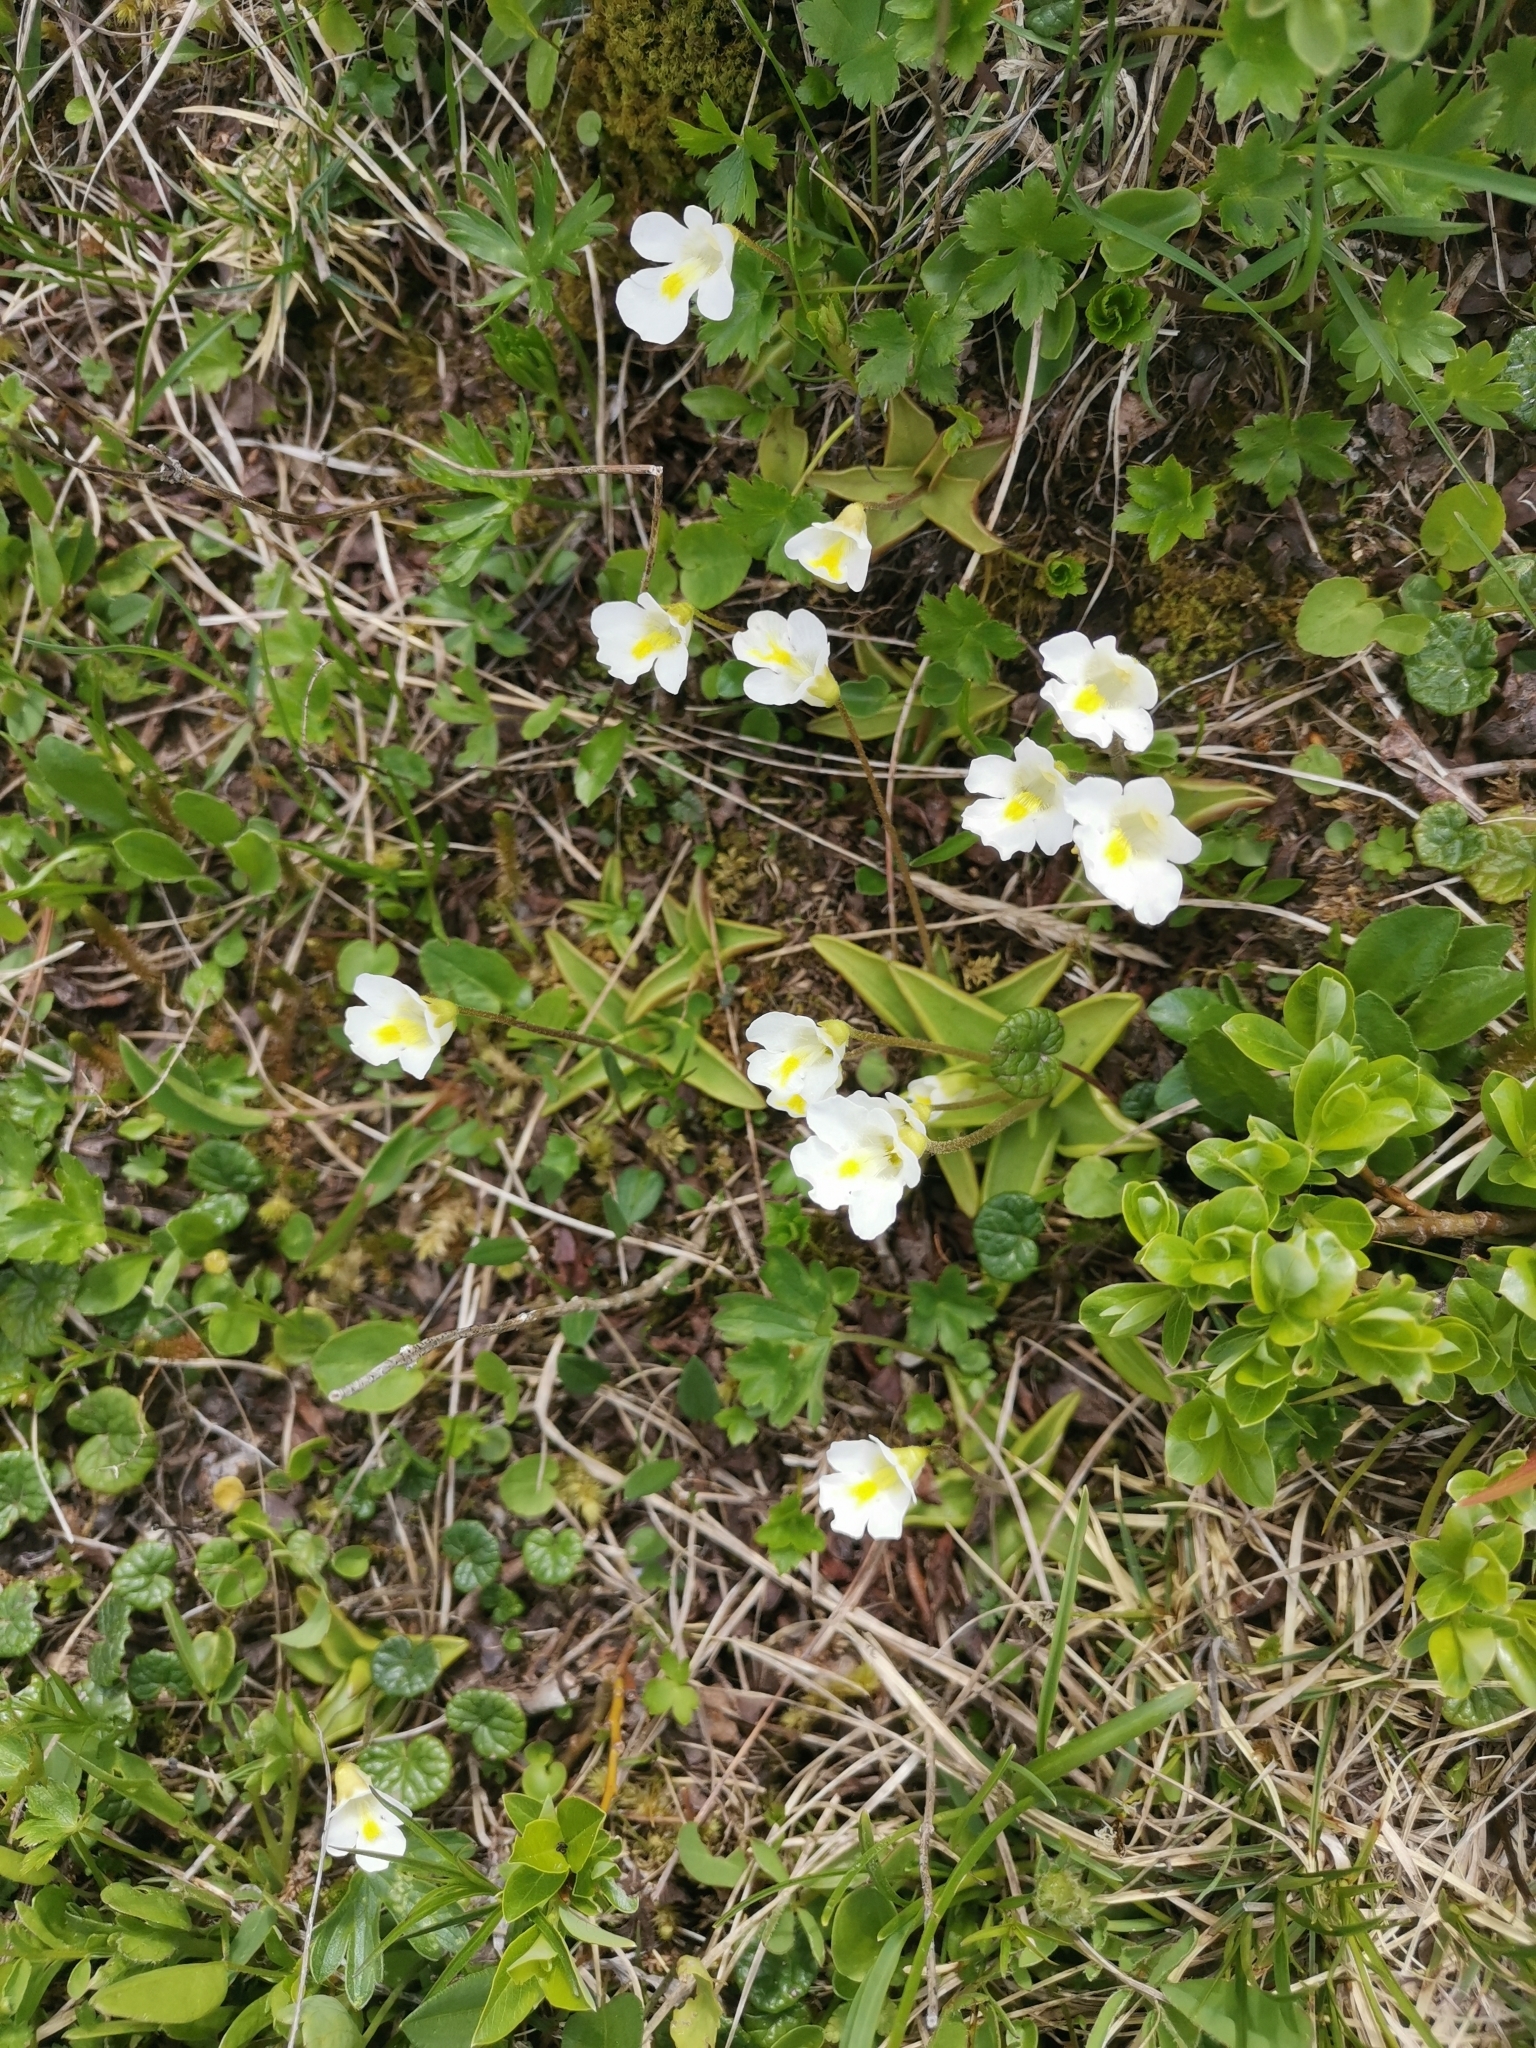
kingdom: Plantae
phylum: Tracheophyta
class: Magnoliopsida
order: Lamiales
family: Lentibulariaceae
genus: Pinguicula
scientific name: Pinguicula alpina
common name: Alpine butterwort
